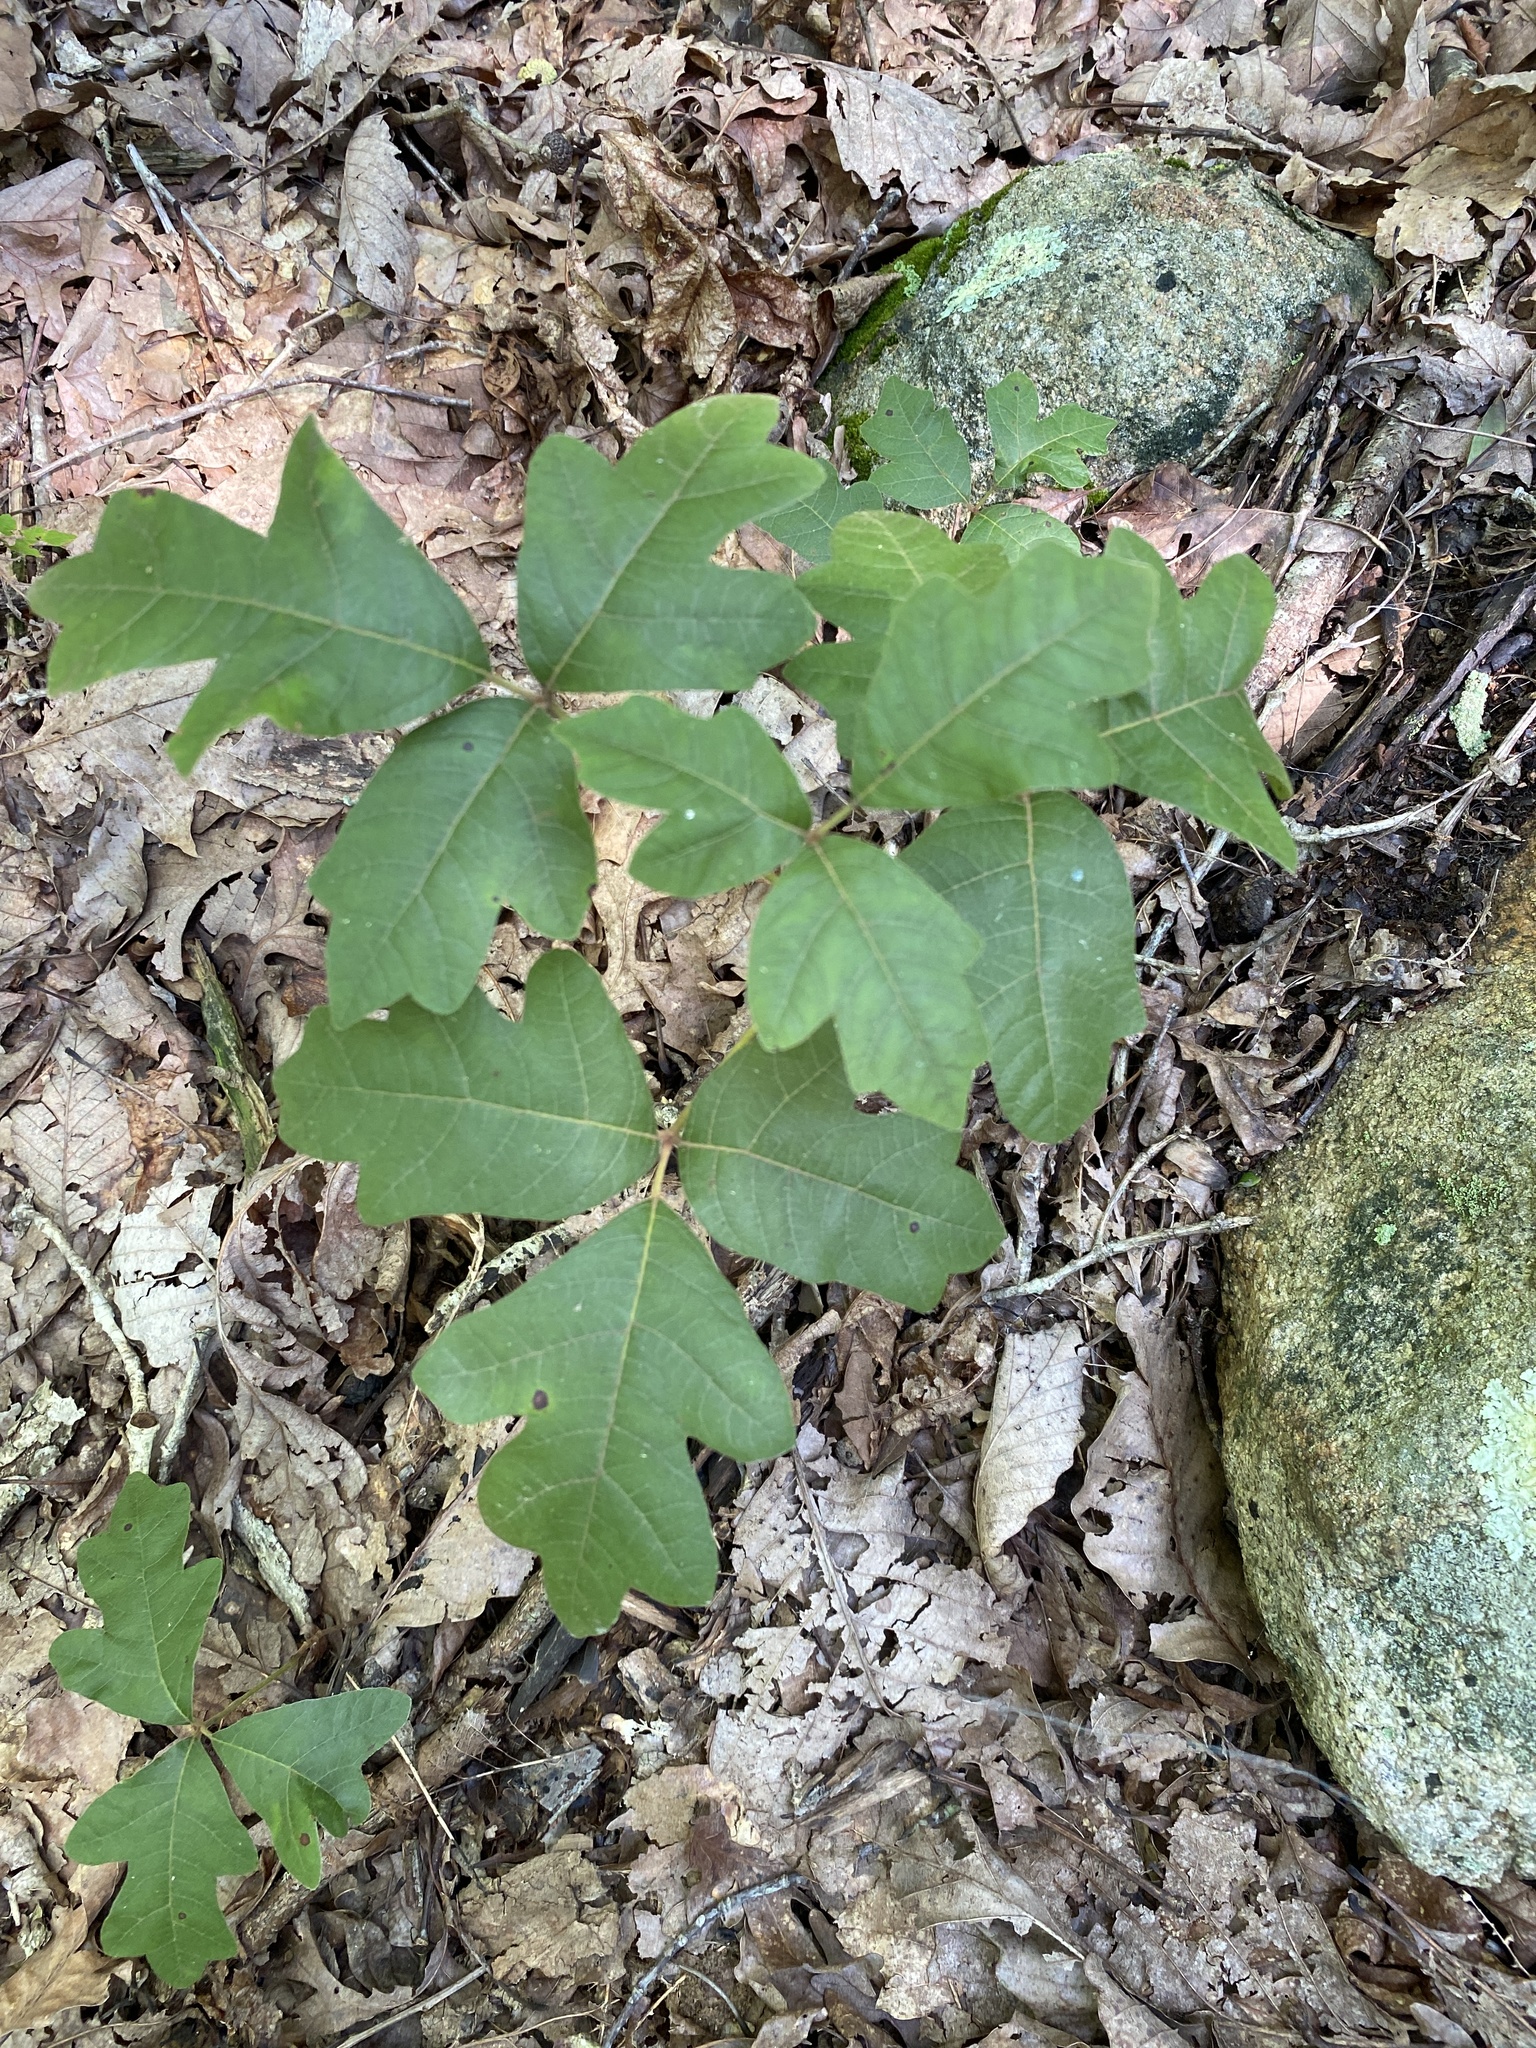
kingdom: Plantae
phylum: Tracheophyta
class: Magnoliopsida
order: Sapindales
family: Anacardiaceae
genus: Toxicodendron
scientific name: Toxicodendron pubescens
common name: Eastern poison-oak
